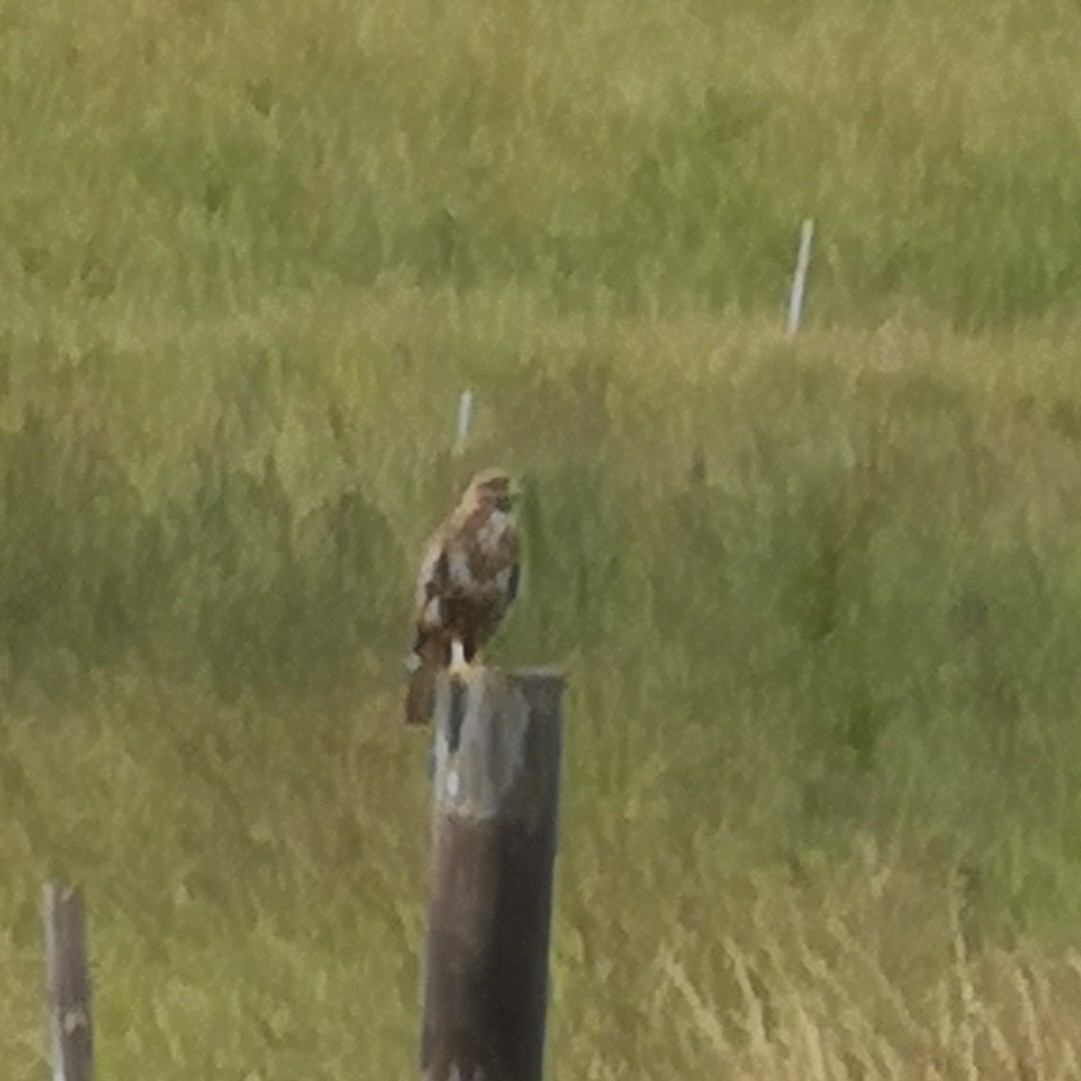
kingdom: Animalia
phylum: Chordata
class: Aves
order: Accipitriformes
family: Accipitridae
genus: Buteo
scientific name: Buteo buteo
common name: Common buzzard
